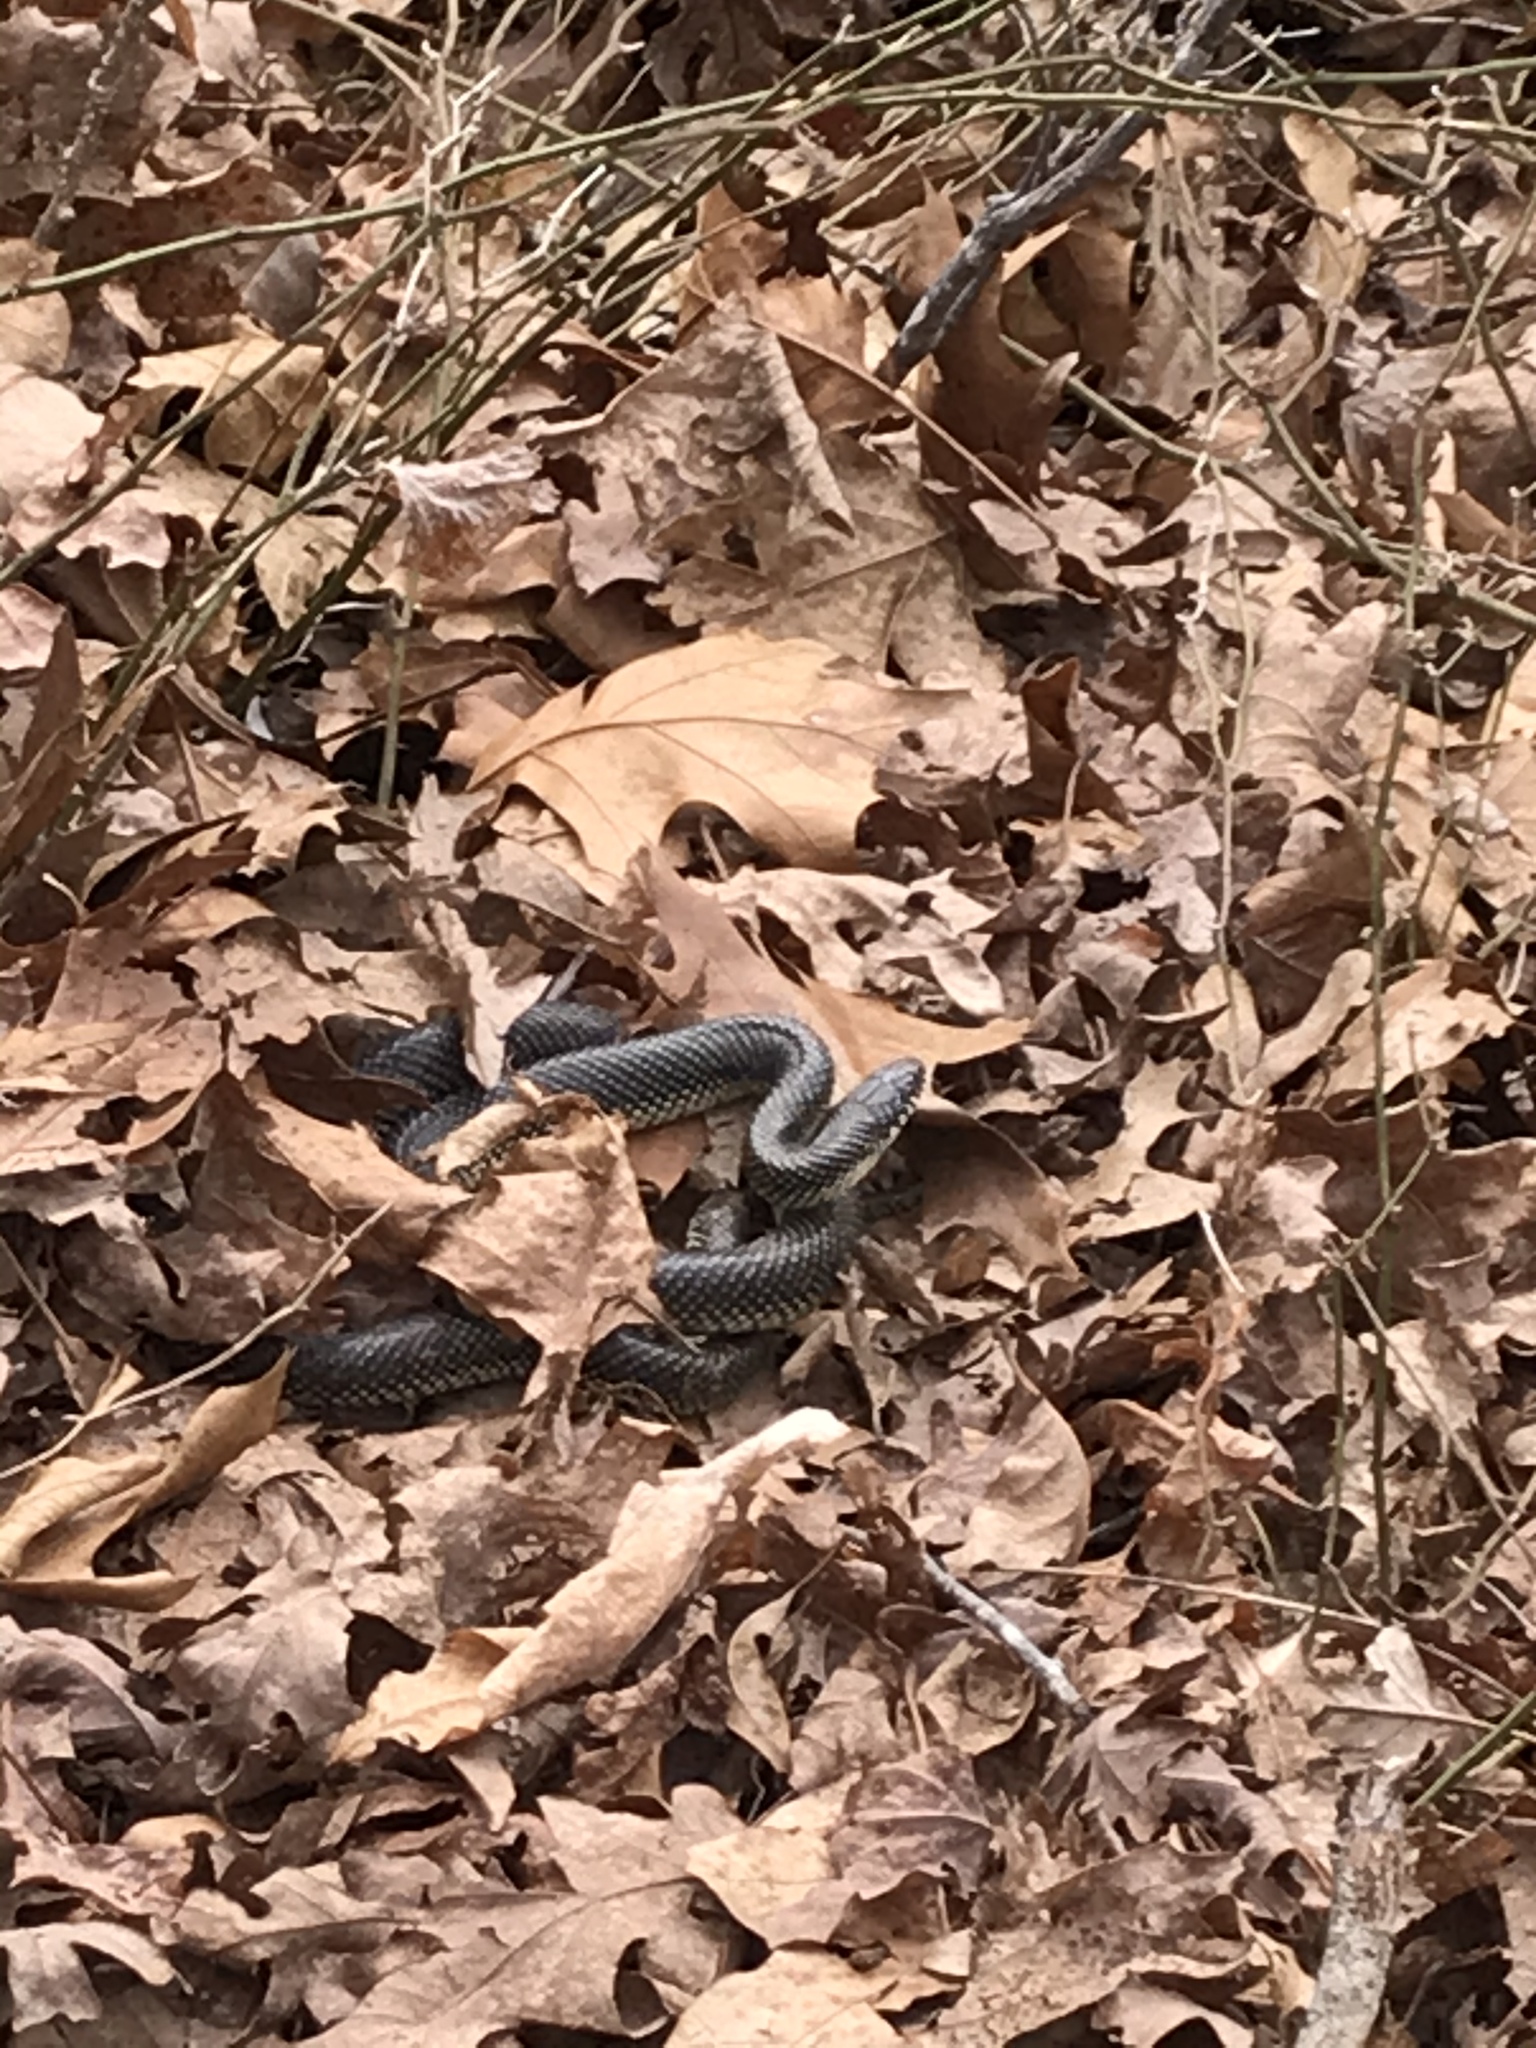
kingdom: Animalia
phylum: Chordata
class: Squamata
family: Colubridae
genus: Lampropeltis
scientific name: Lampropeltis holbrooki
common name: Speckled kingsnake
